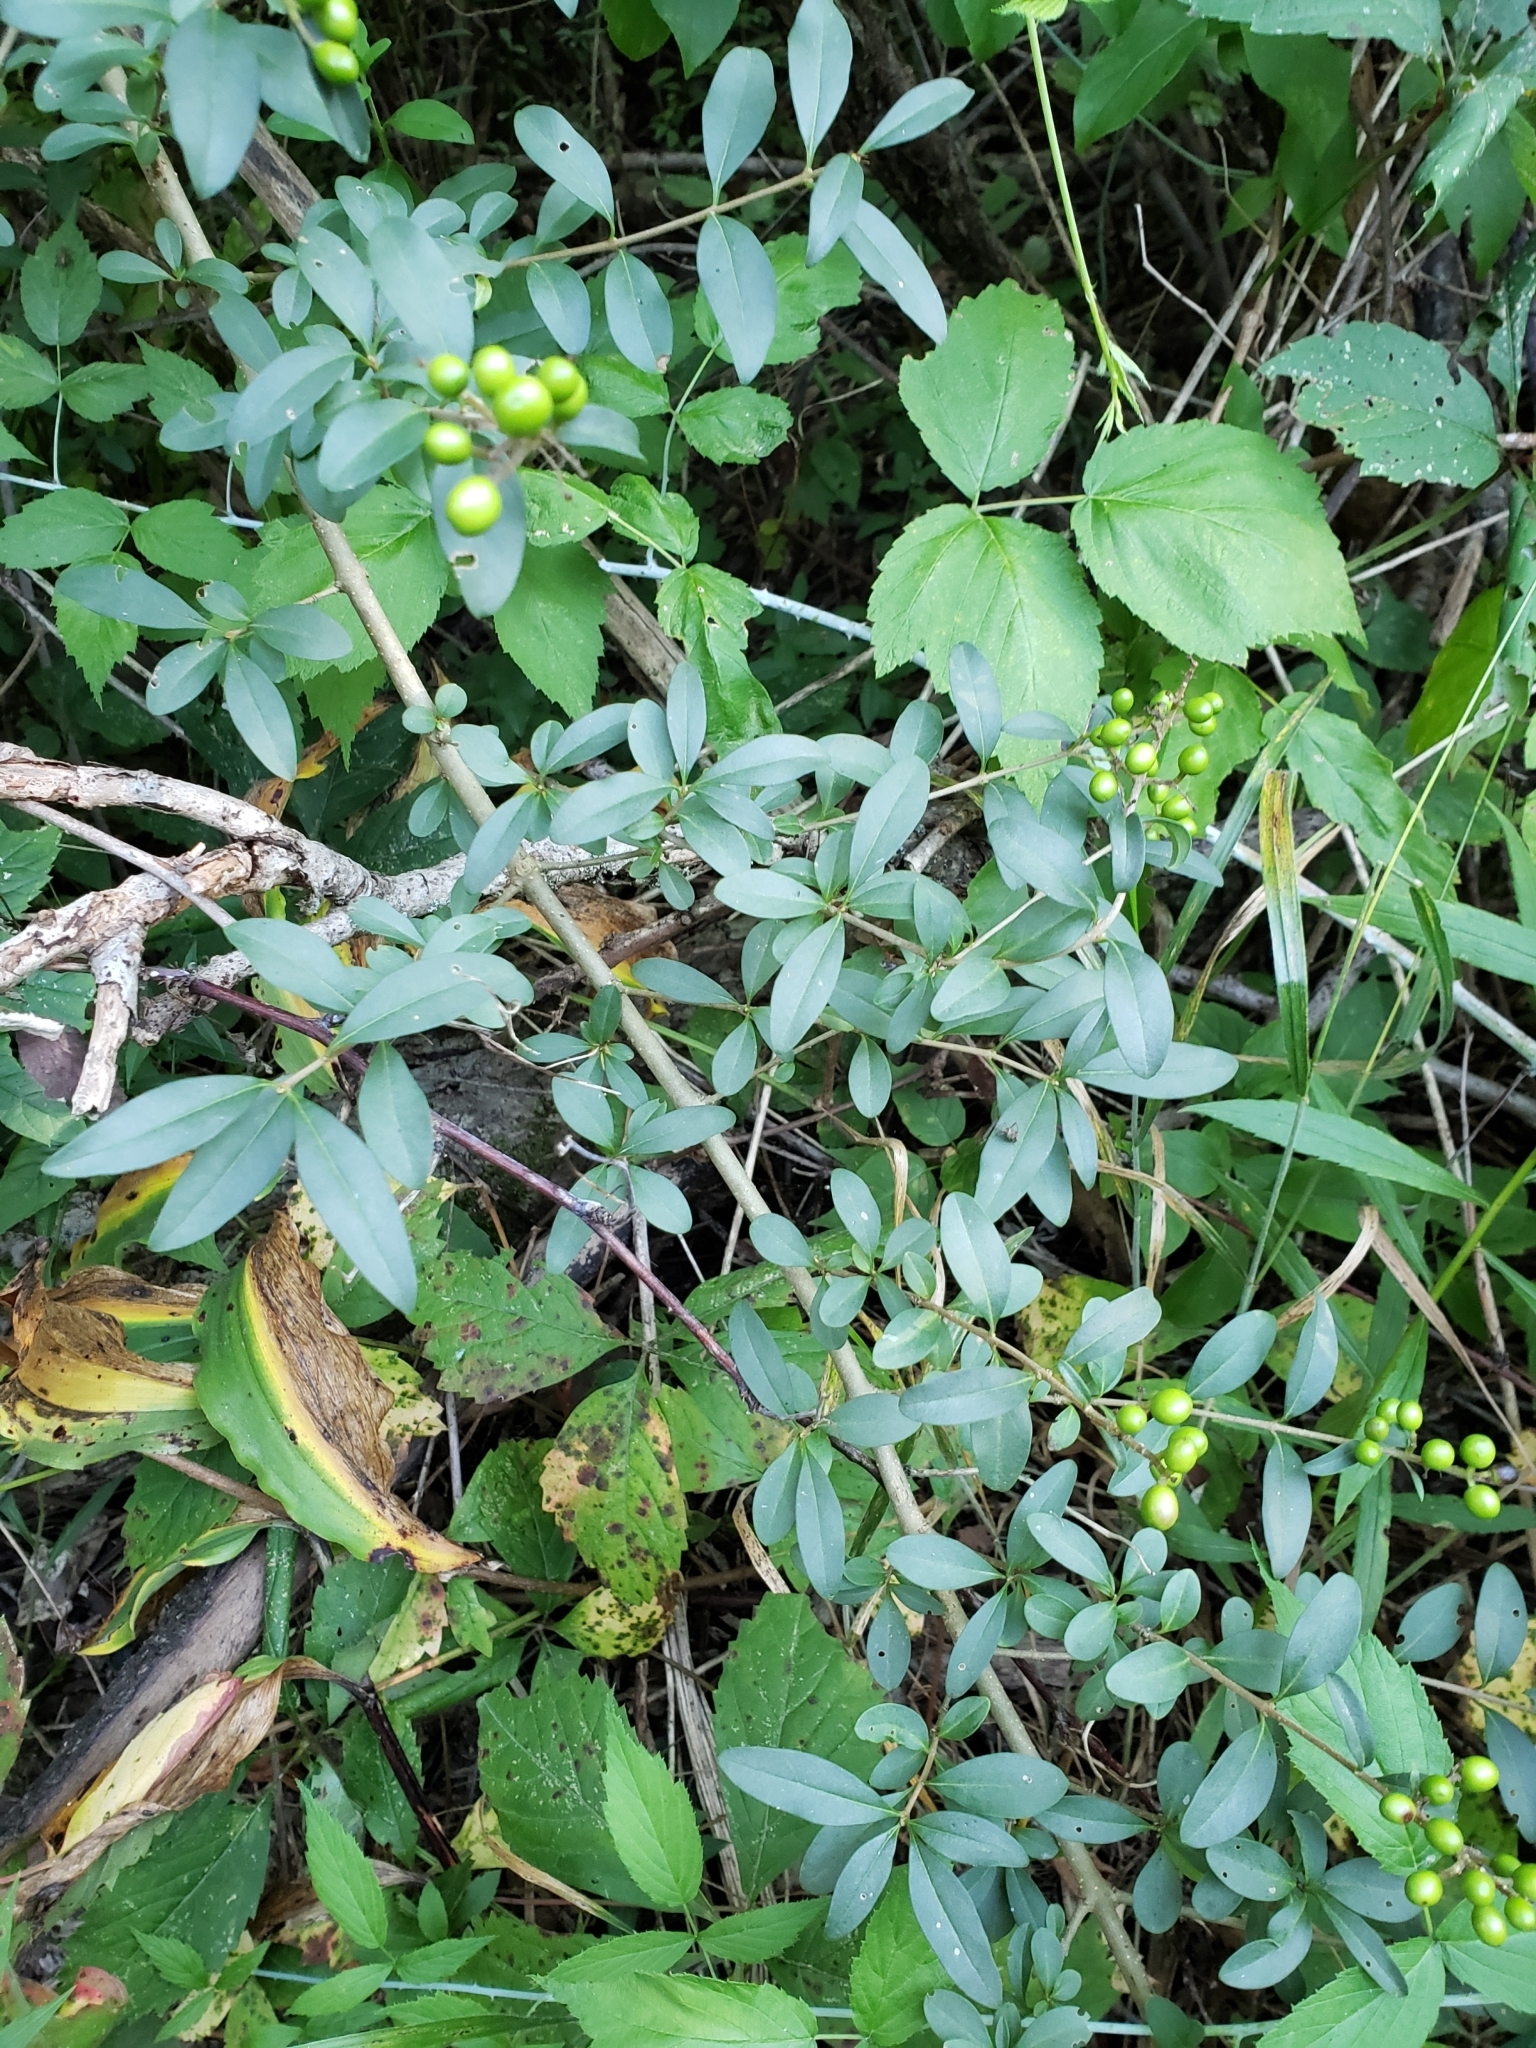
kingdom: Plantae
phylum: Tracheophyta
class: Magnoliopsida
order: Lamiales
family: Oleaceae
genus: Ligustrum
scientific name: Ligustrum vulgare
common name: Wild privet
